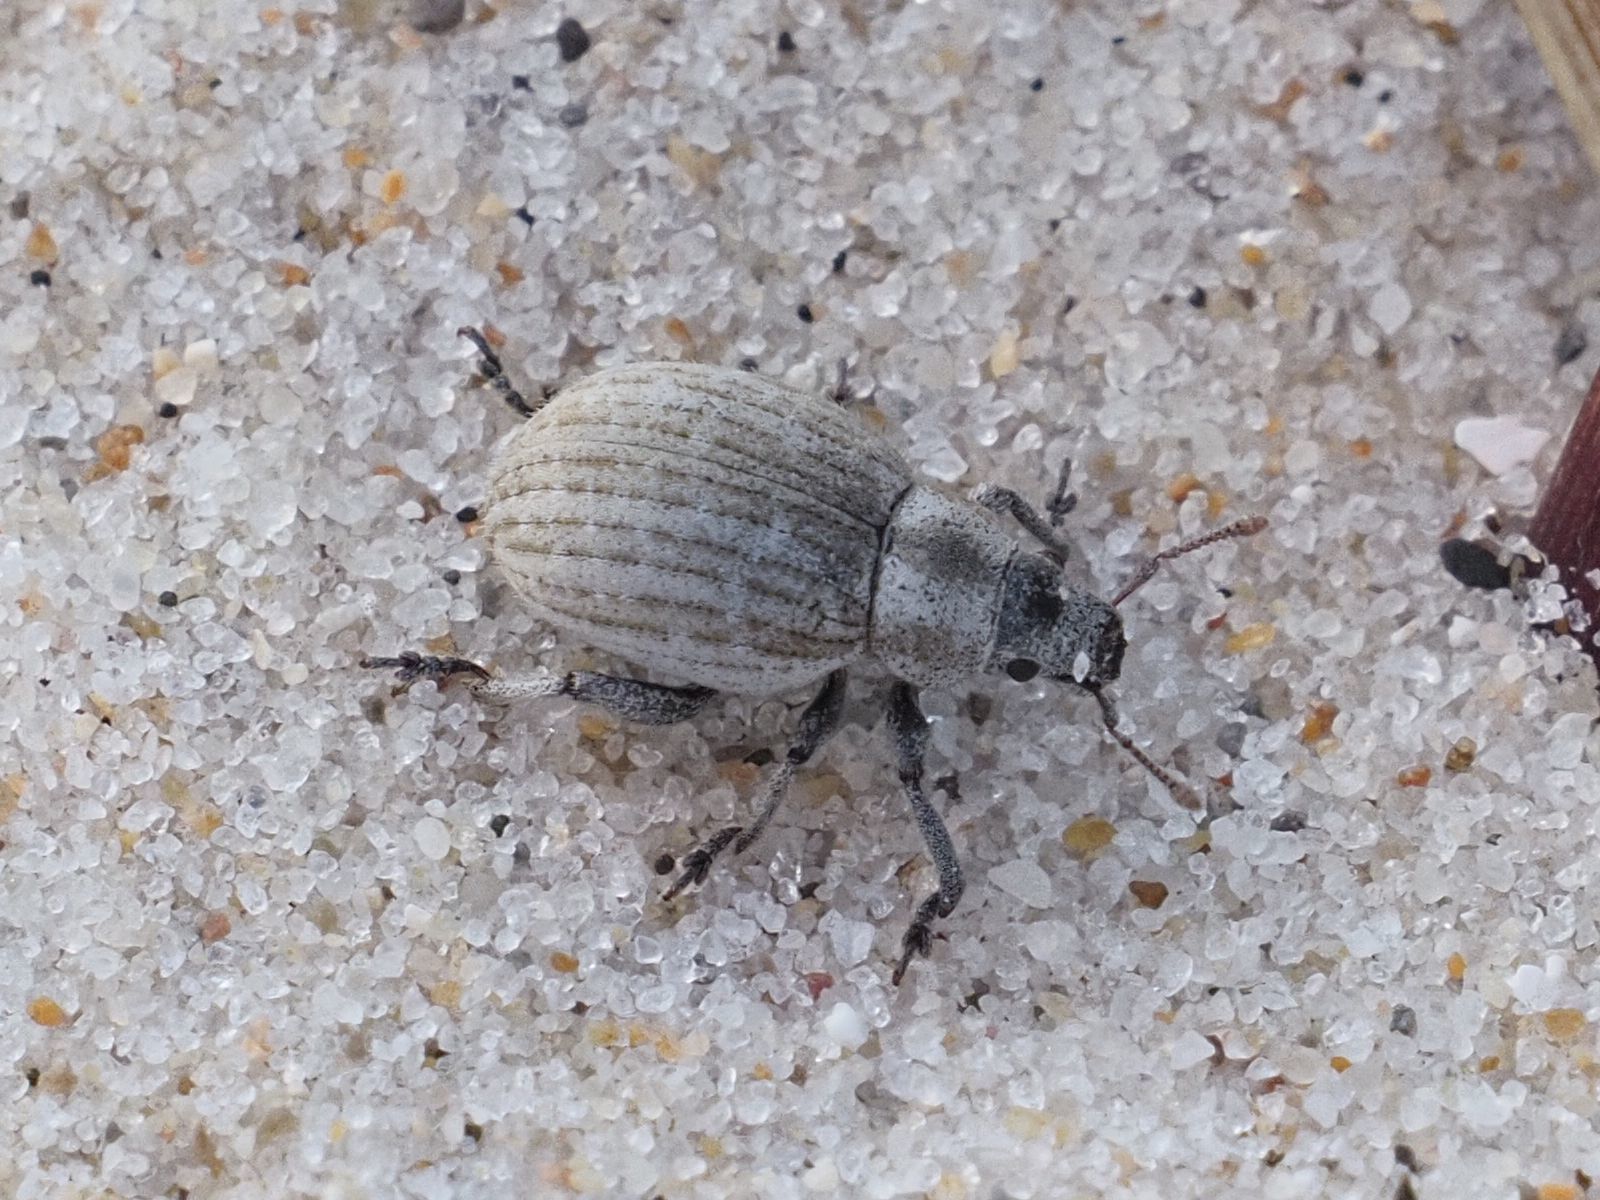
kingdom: Animalia
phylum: Arthropoda
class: Insecta
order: Coleoptera
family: Curculionidae
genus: Philopedon
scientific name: Philopedon plagiatum
